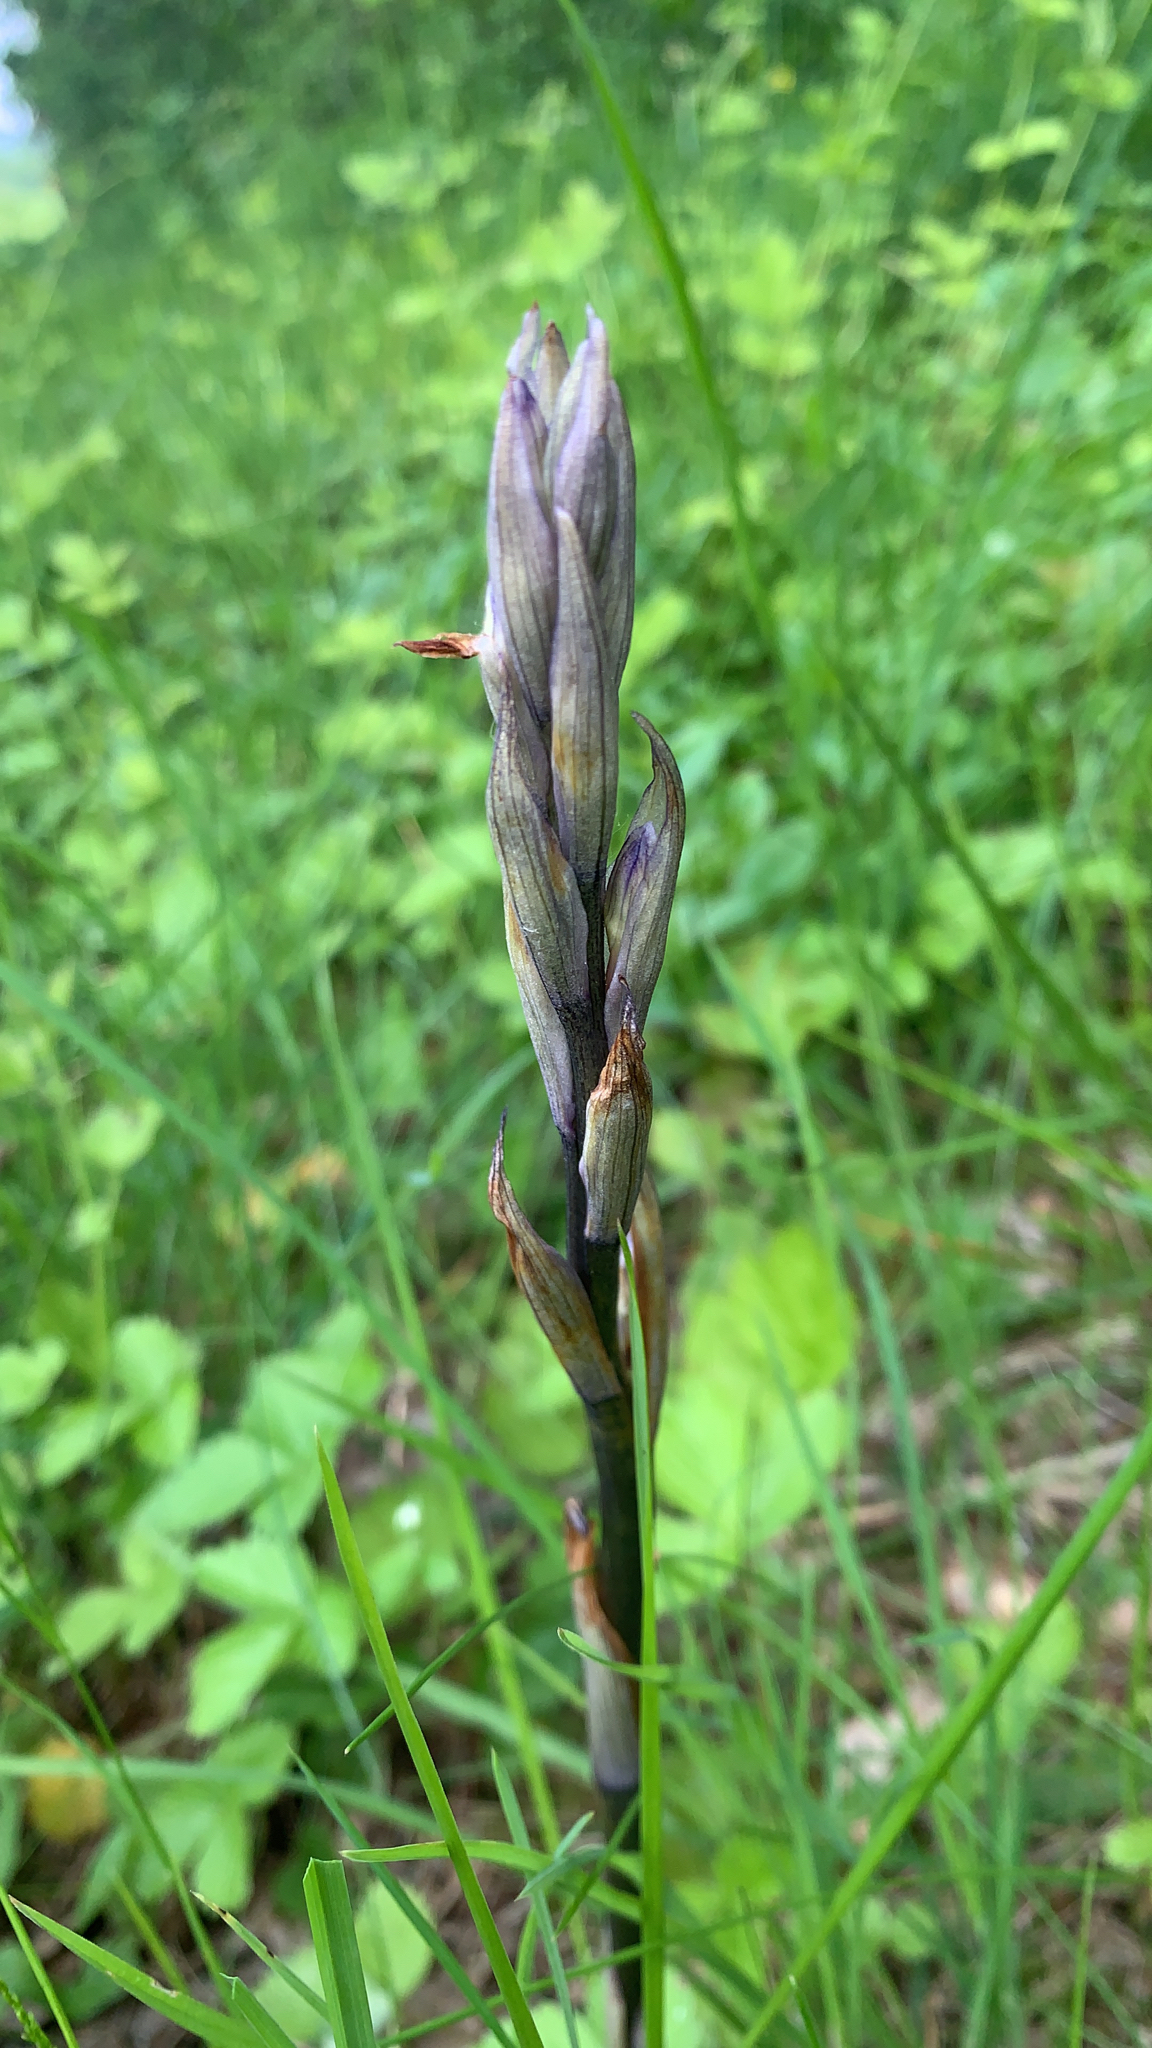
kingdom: Plantae
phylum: Tracheophyta
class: Liliopsida
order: Asparagales
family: Orchidaceae
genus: Limodorum
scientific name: Limodorum abortivum
